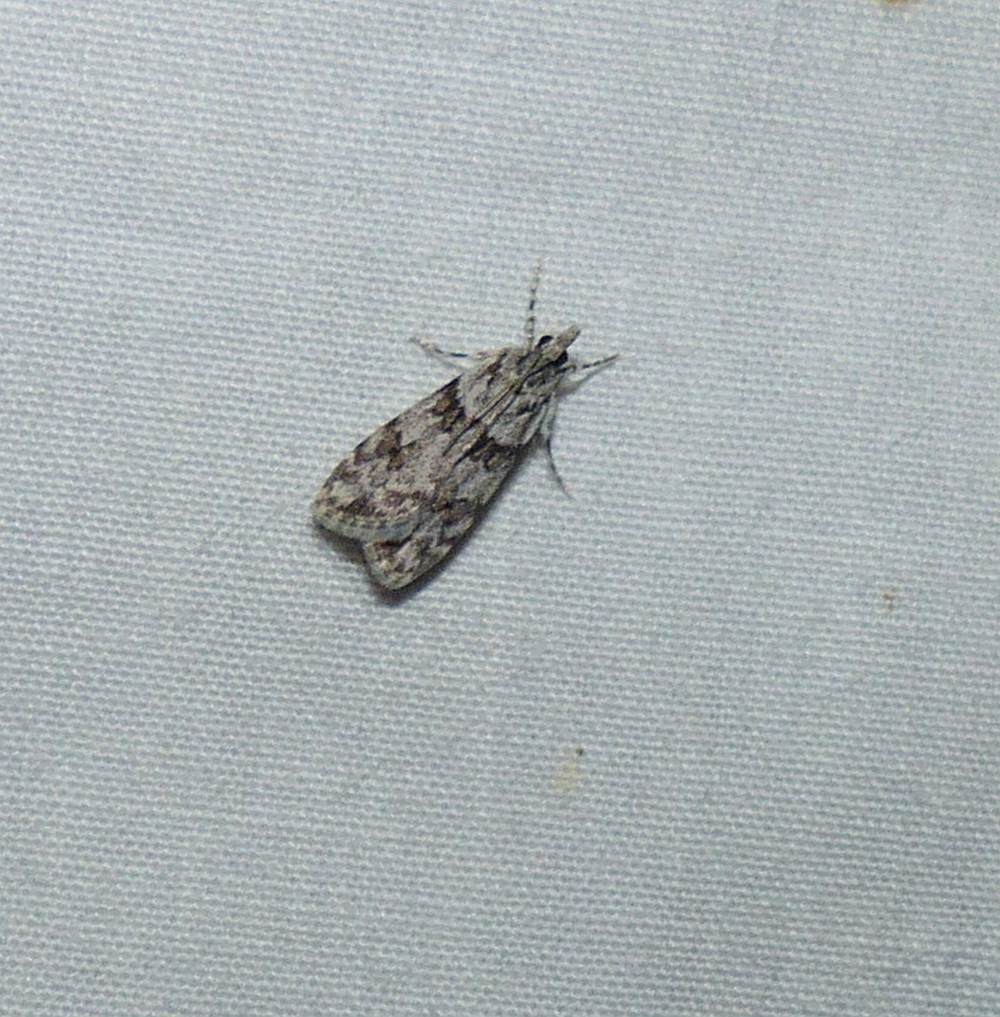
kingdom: Animalia
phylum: Arthropoda
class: Insecta
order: Lepidoptera
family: Crambidae
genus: Scoparia
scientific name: Scoparia biplagialis
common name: Double-striped scoparia moth
